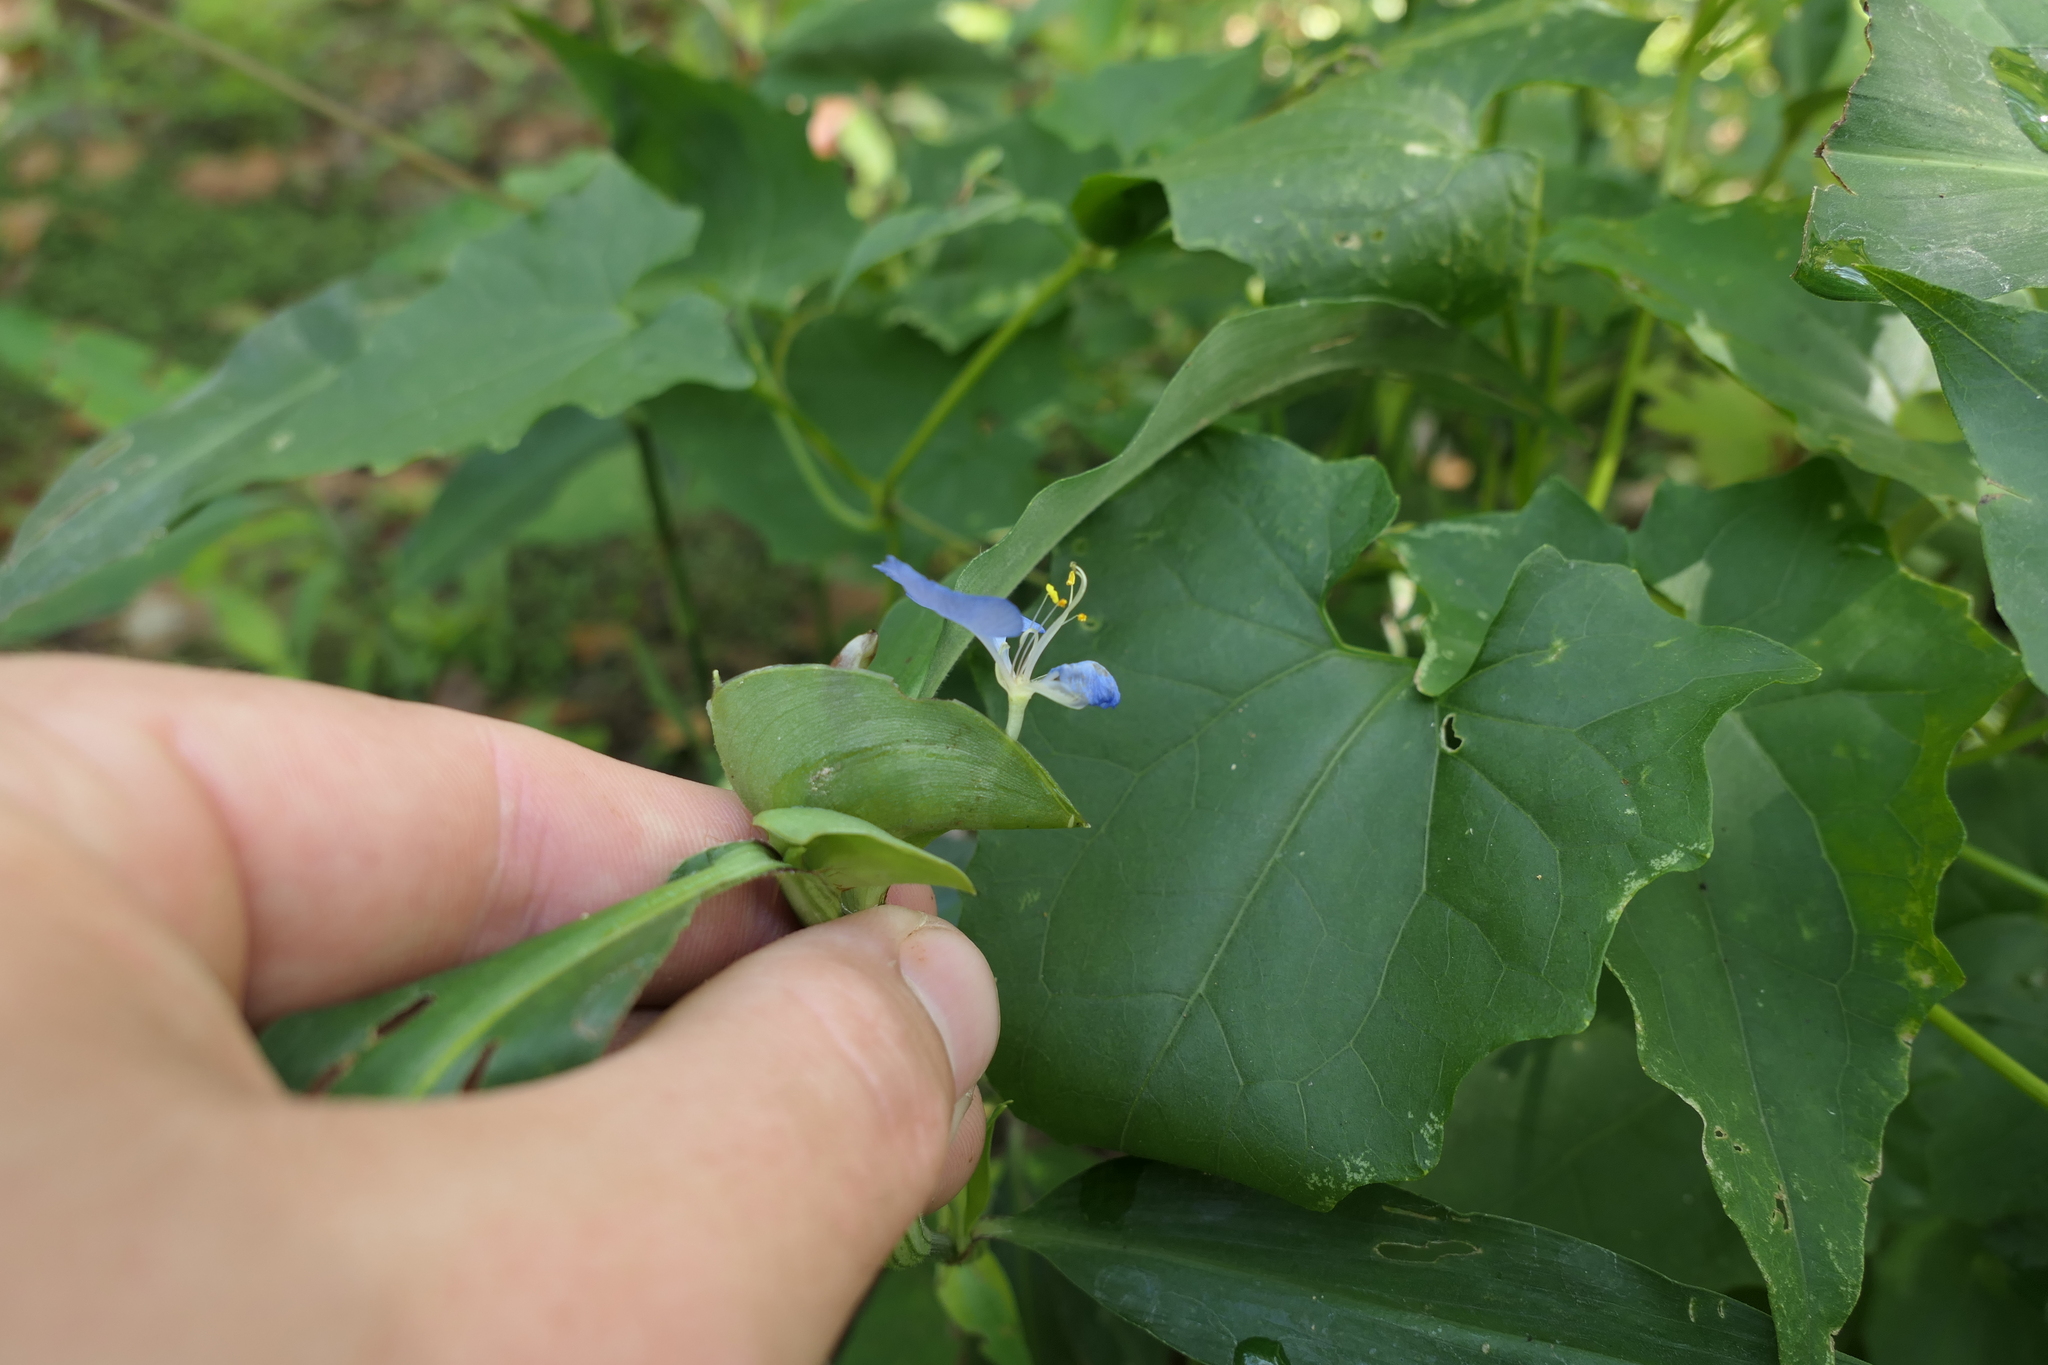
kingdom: Plantae
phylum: Tracheophyta
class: Liliopsida
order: Commelinales
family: Commelinaceae
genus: Commelina
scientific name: Commelina virginica
